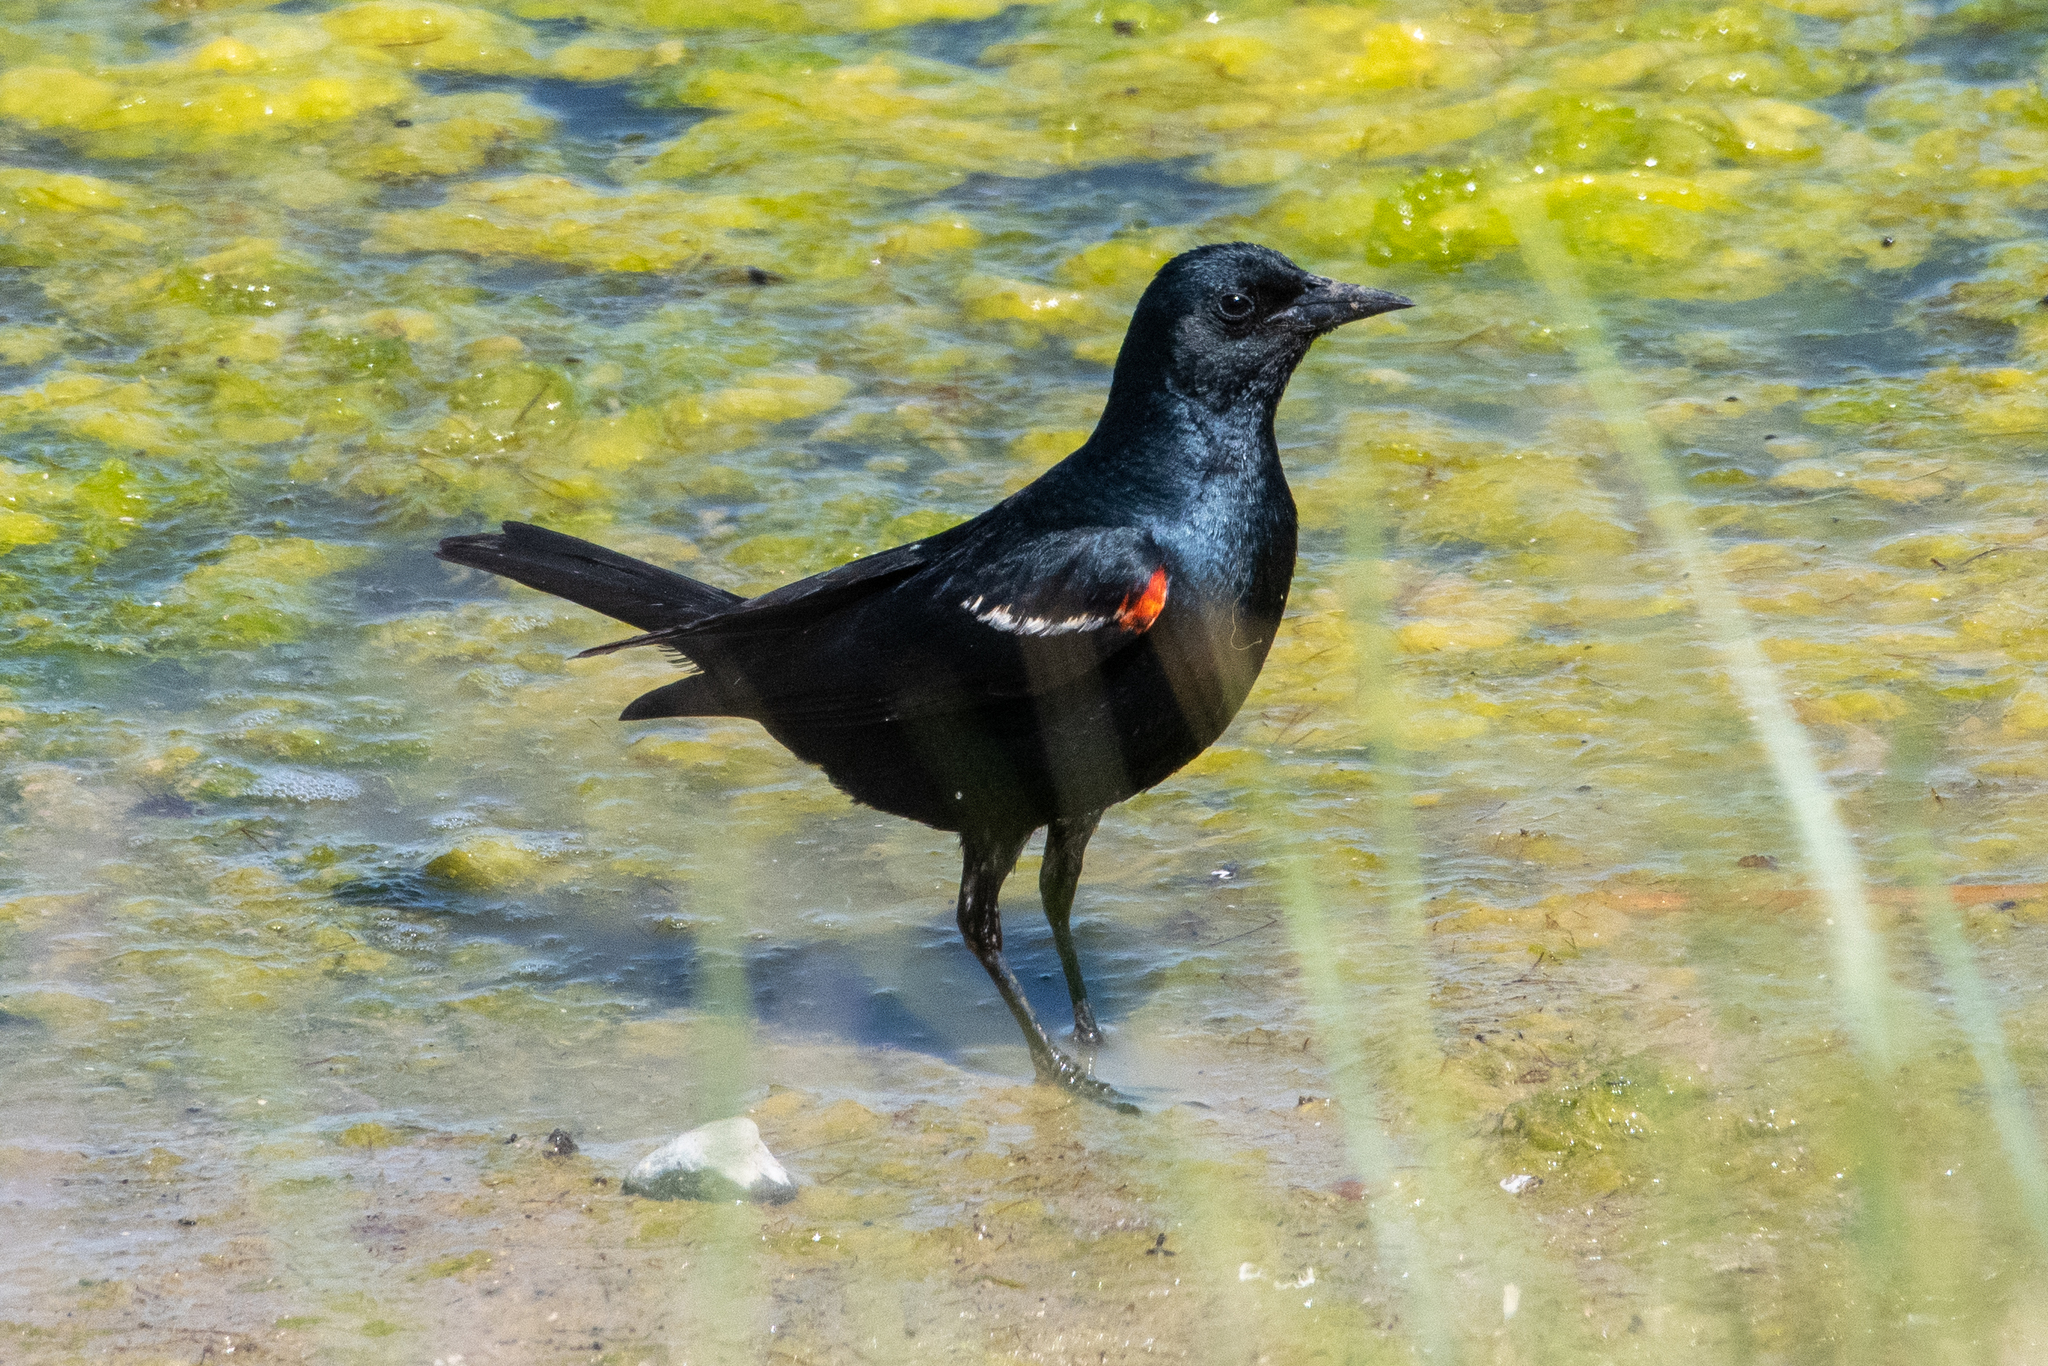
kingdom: Animalia
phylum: Chordata
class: Aves
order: Passeriformes
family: Icteridae
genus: Agelaius
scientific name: Agelaius tricolor
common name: Tricolored blackbird
